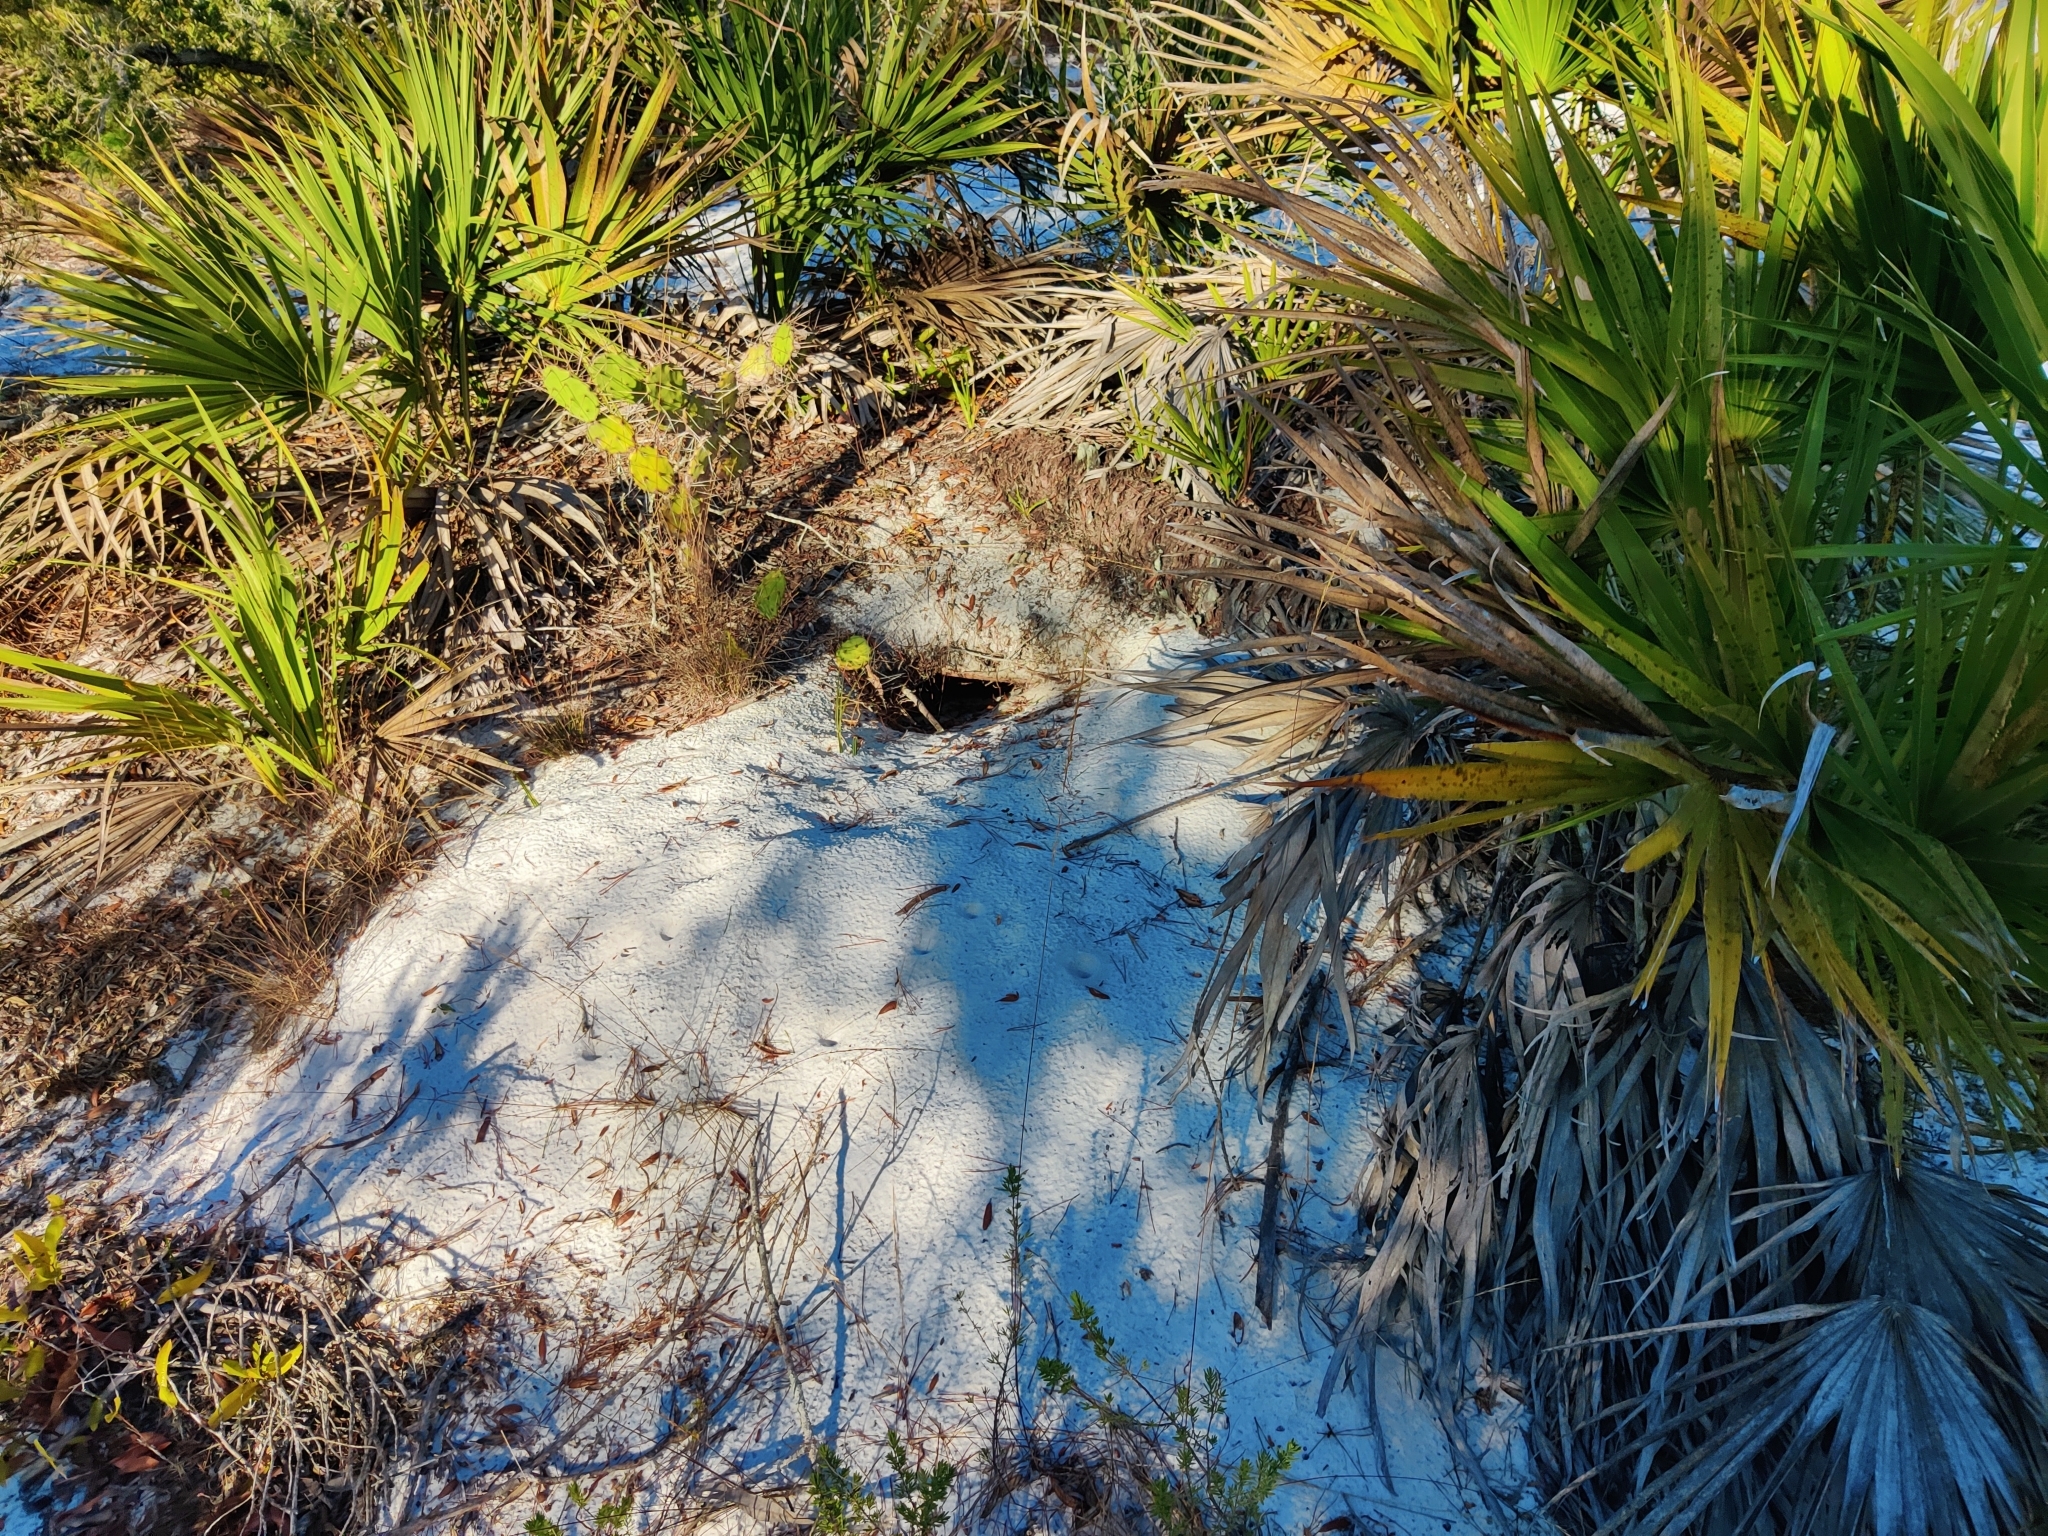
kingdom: Animalia
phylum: Chordata
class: Testudines
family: Testudinidae
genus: Gopherus
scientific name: Gopherus polyphemus
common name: Florida gopher tortoise
